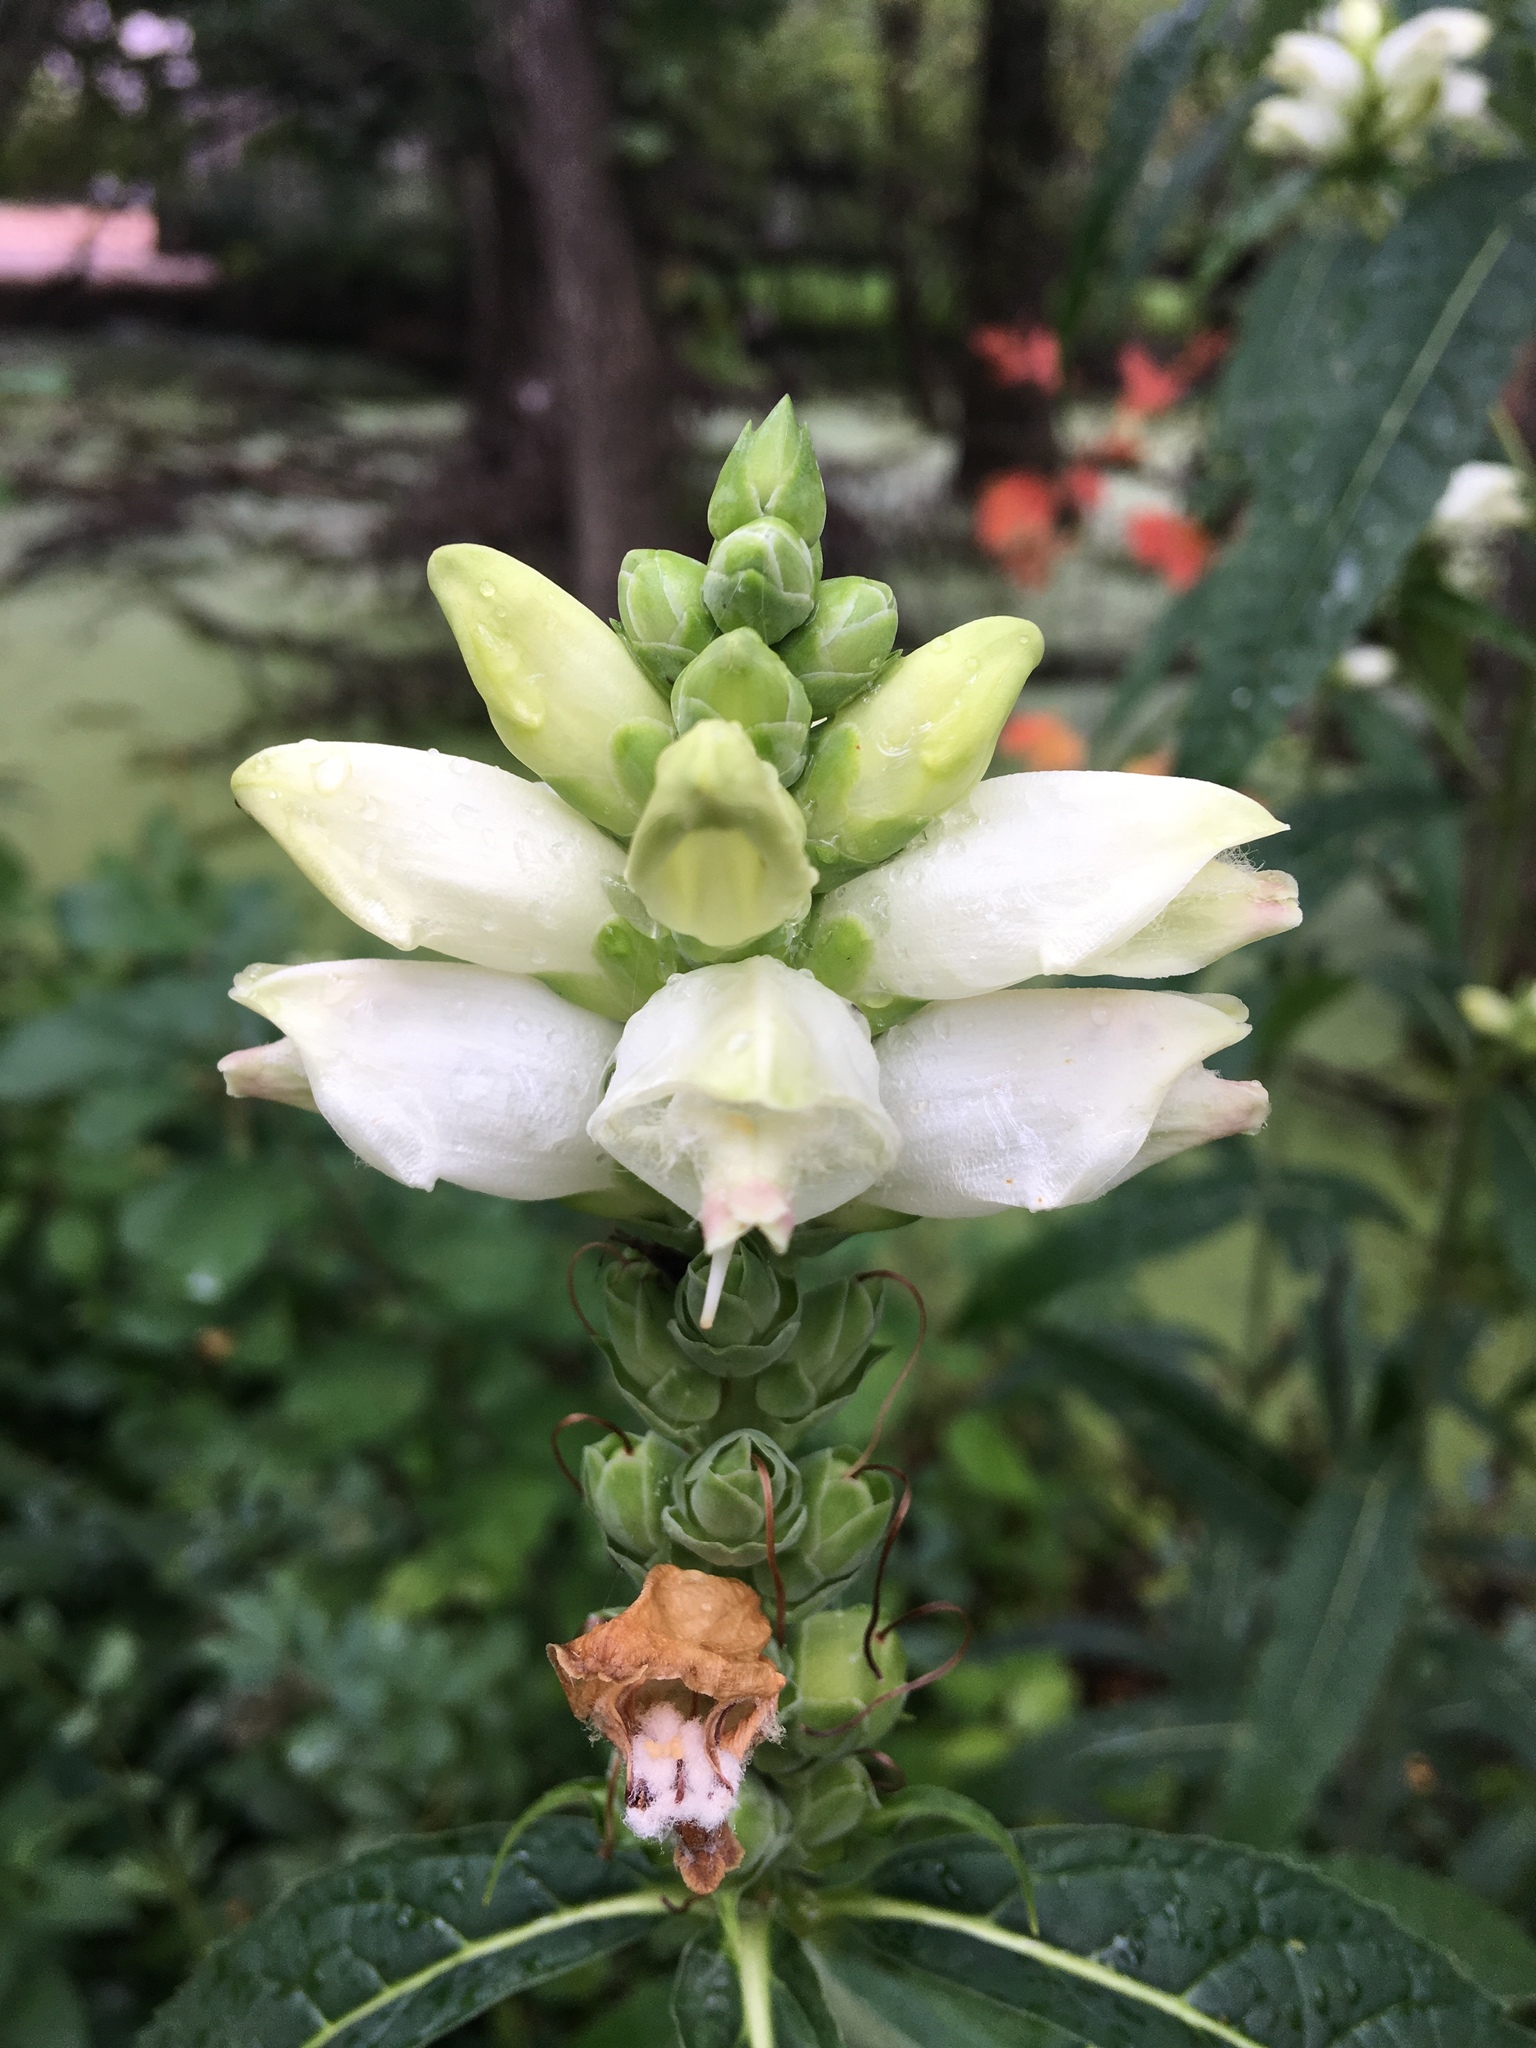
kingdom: Plantae
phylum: Tracheophyta
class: Magnoliopsida
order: Lamiales
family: Plantaginaceae
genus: Chelone
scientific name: Chelone glabra
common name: Snakehead
